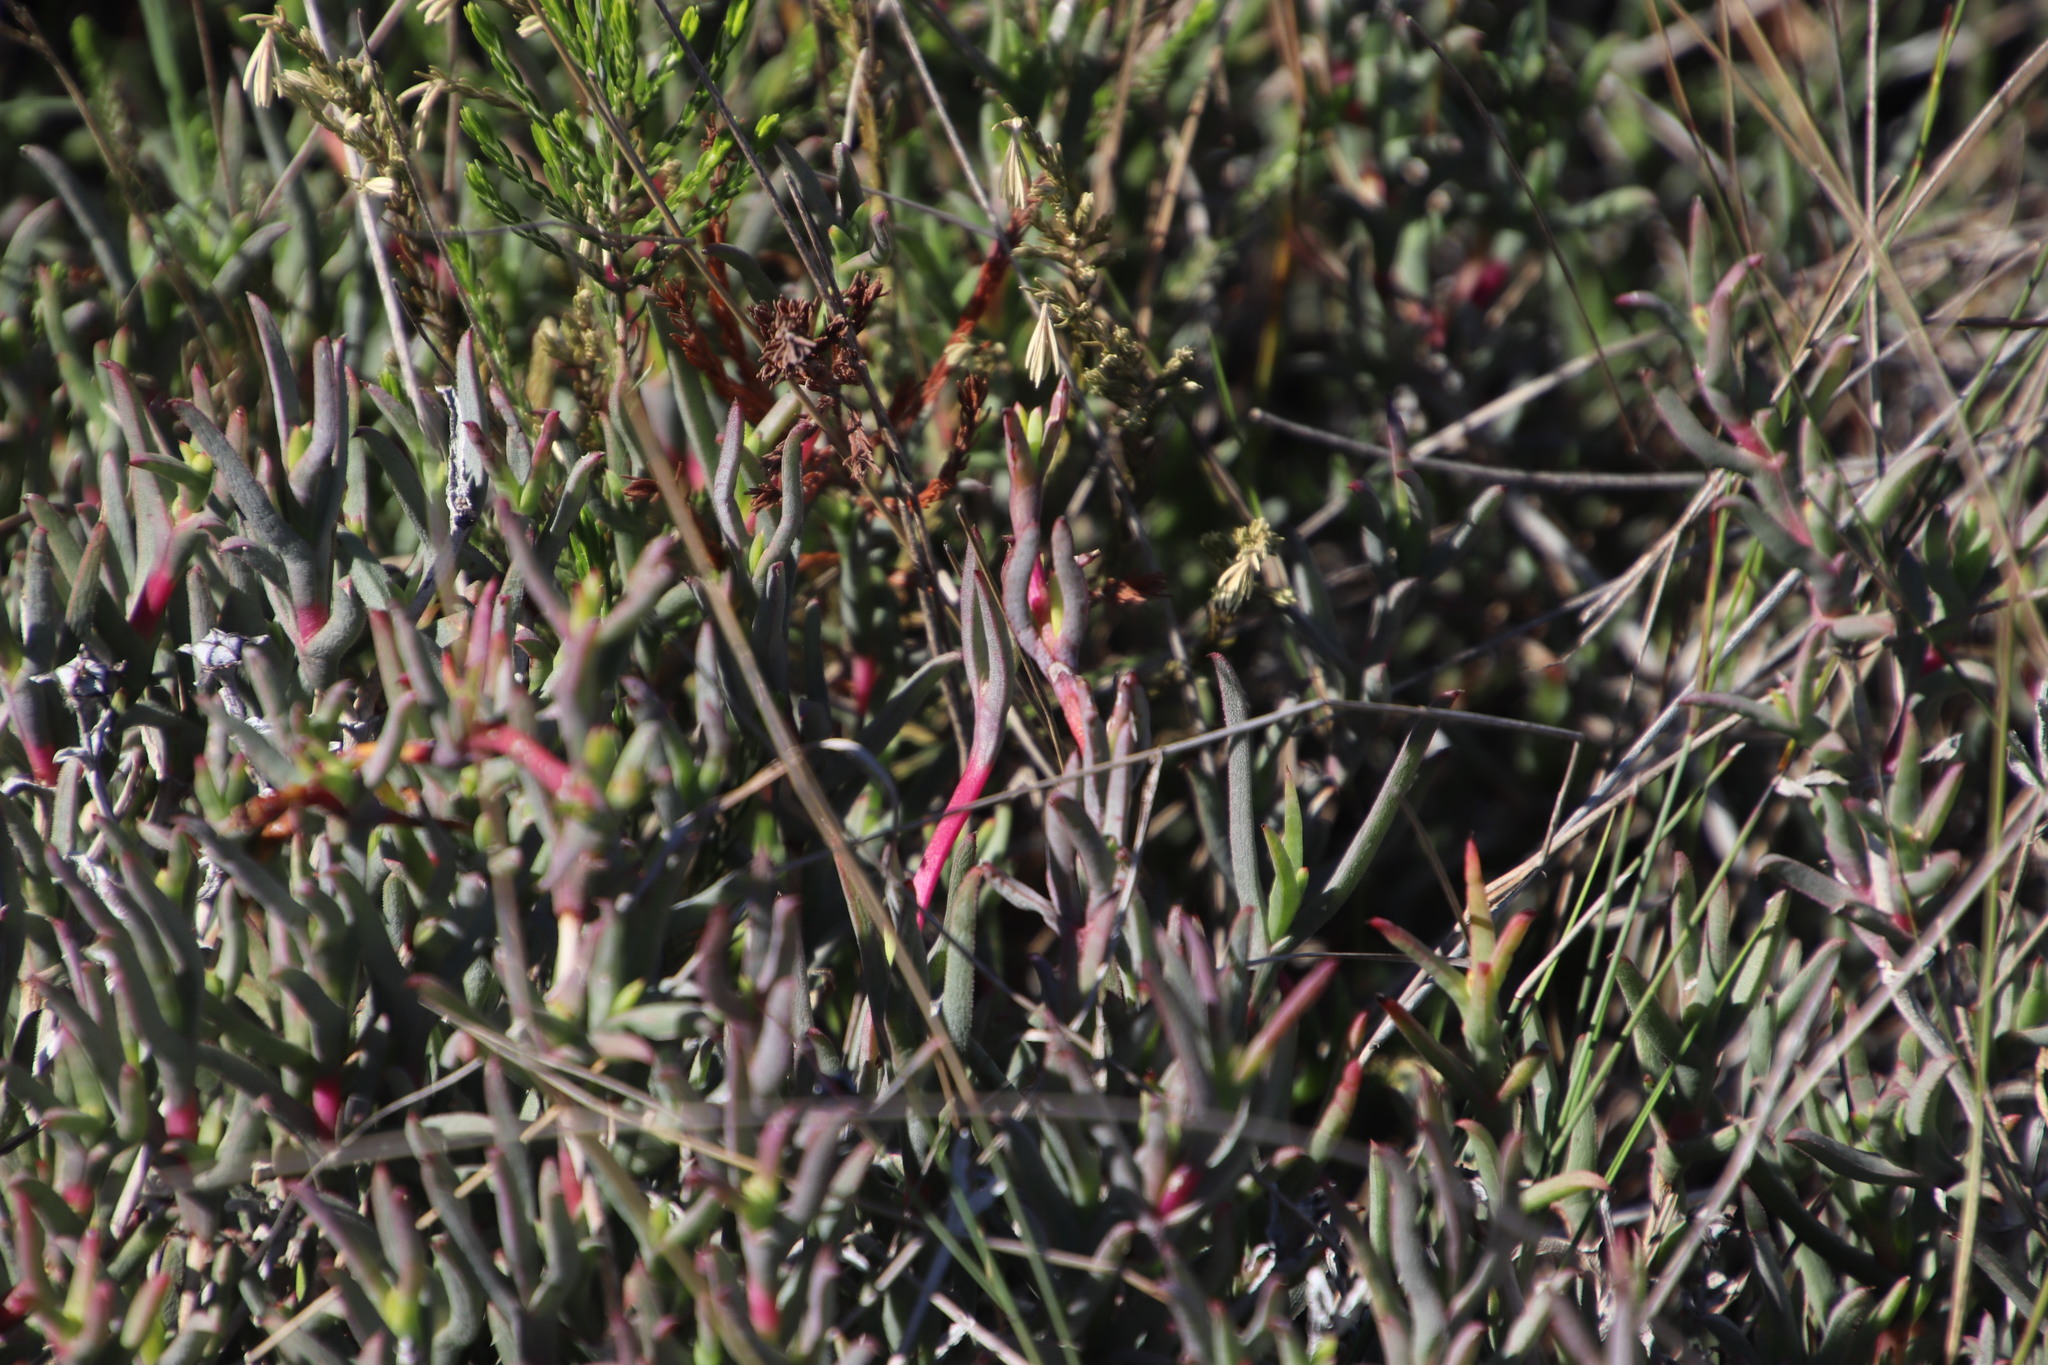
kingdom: Plantae
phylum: Tracheophyta
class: Magnoliopsida
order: Caryophyllales
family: Aizoaceae
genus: Ruschia
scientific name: Ruschia geminiflora
